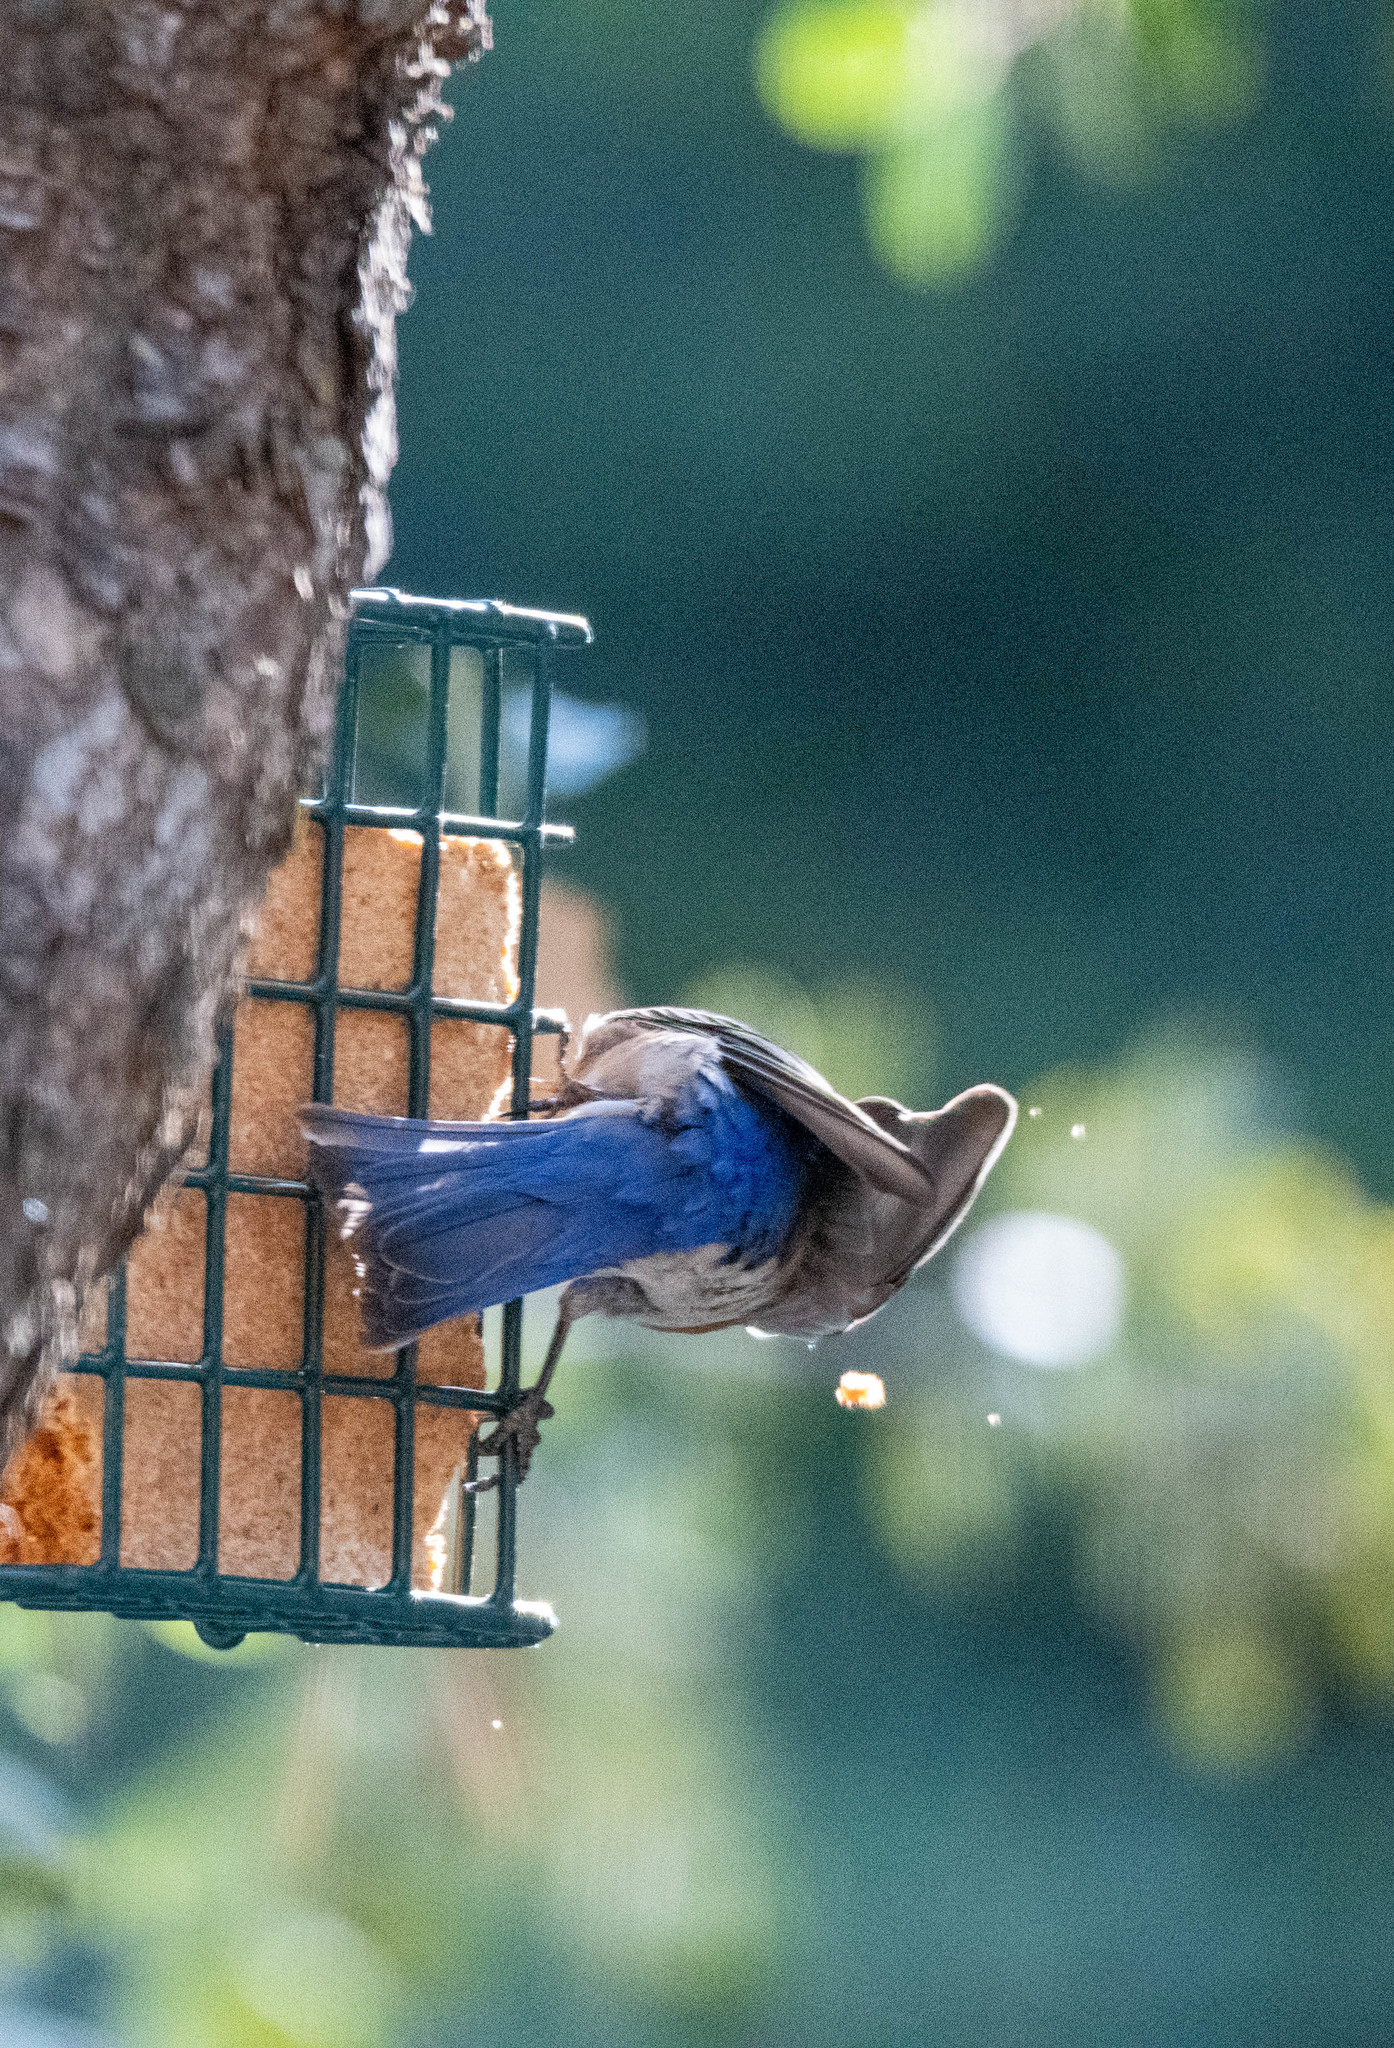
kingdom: Animalia
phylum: Chordata
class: Aves
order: Passeriformes
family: Turdidae
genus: Sialia
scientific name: Sialia mexicana
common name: Western bluebird
